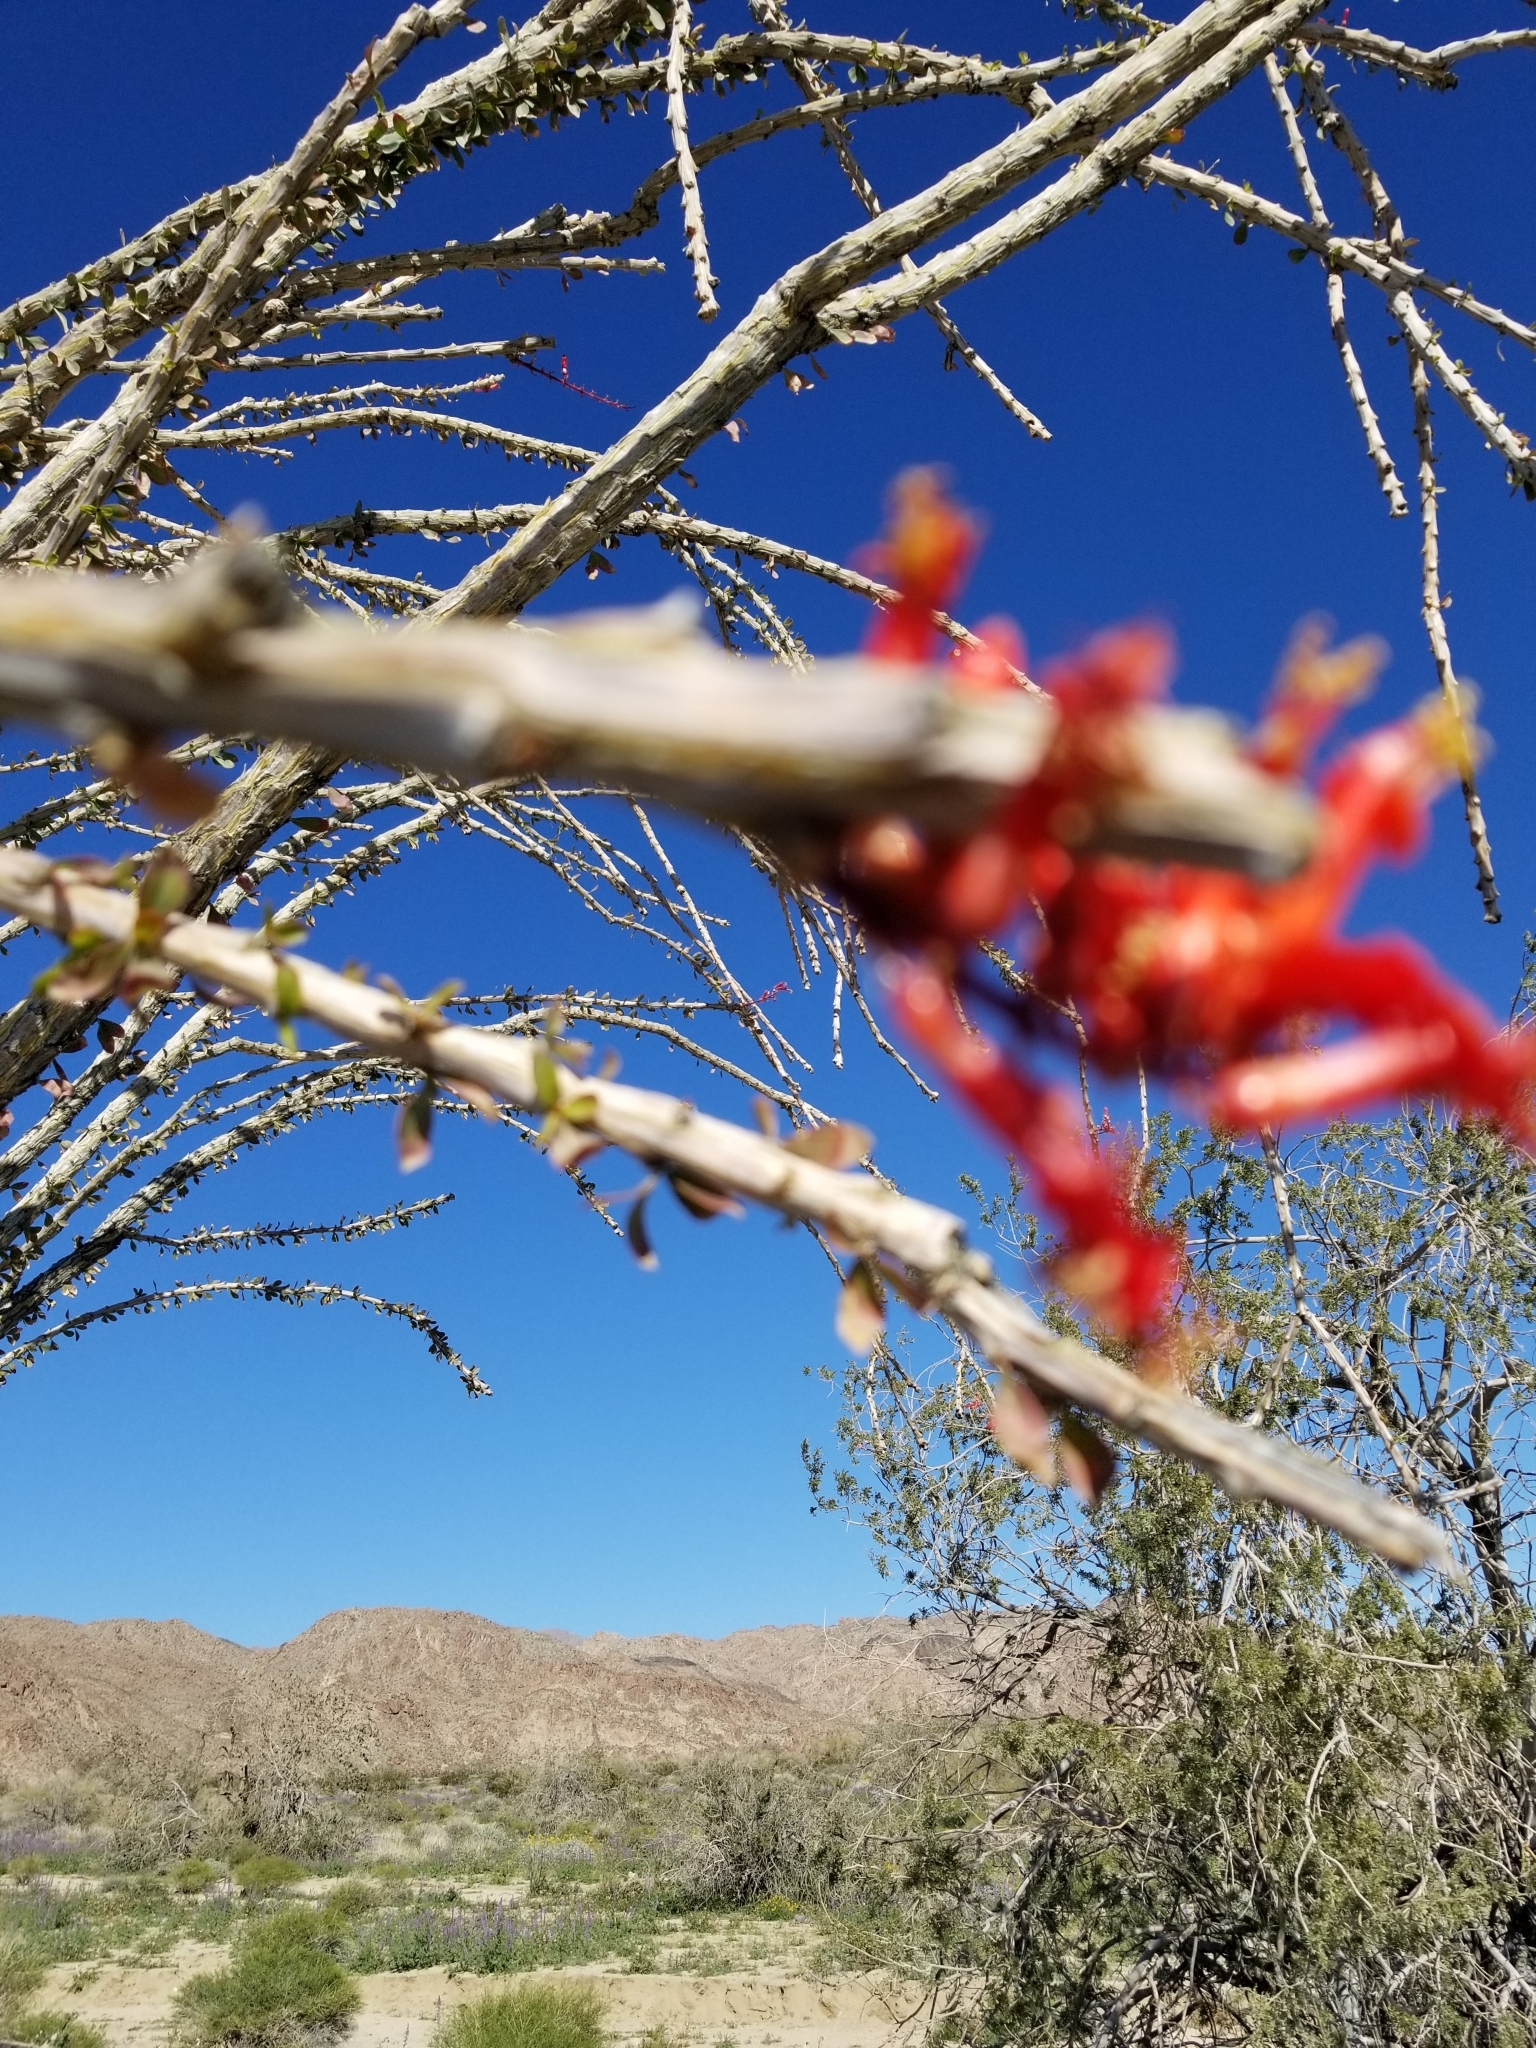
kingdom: Plantae
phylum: Tracheophyta
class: Magnoliopsida
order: Ericales
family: Fouquieriaceae
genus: Fouquieria
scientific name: Fouquieria splendens
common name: Vine-cactus
